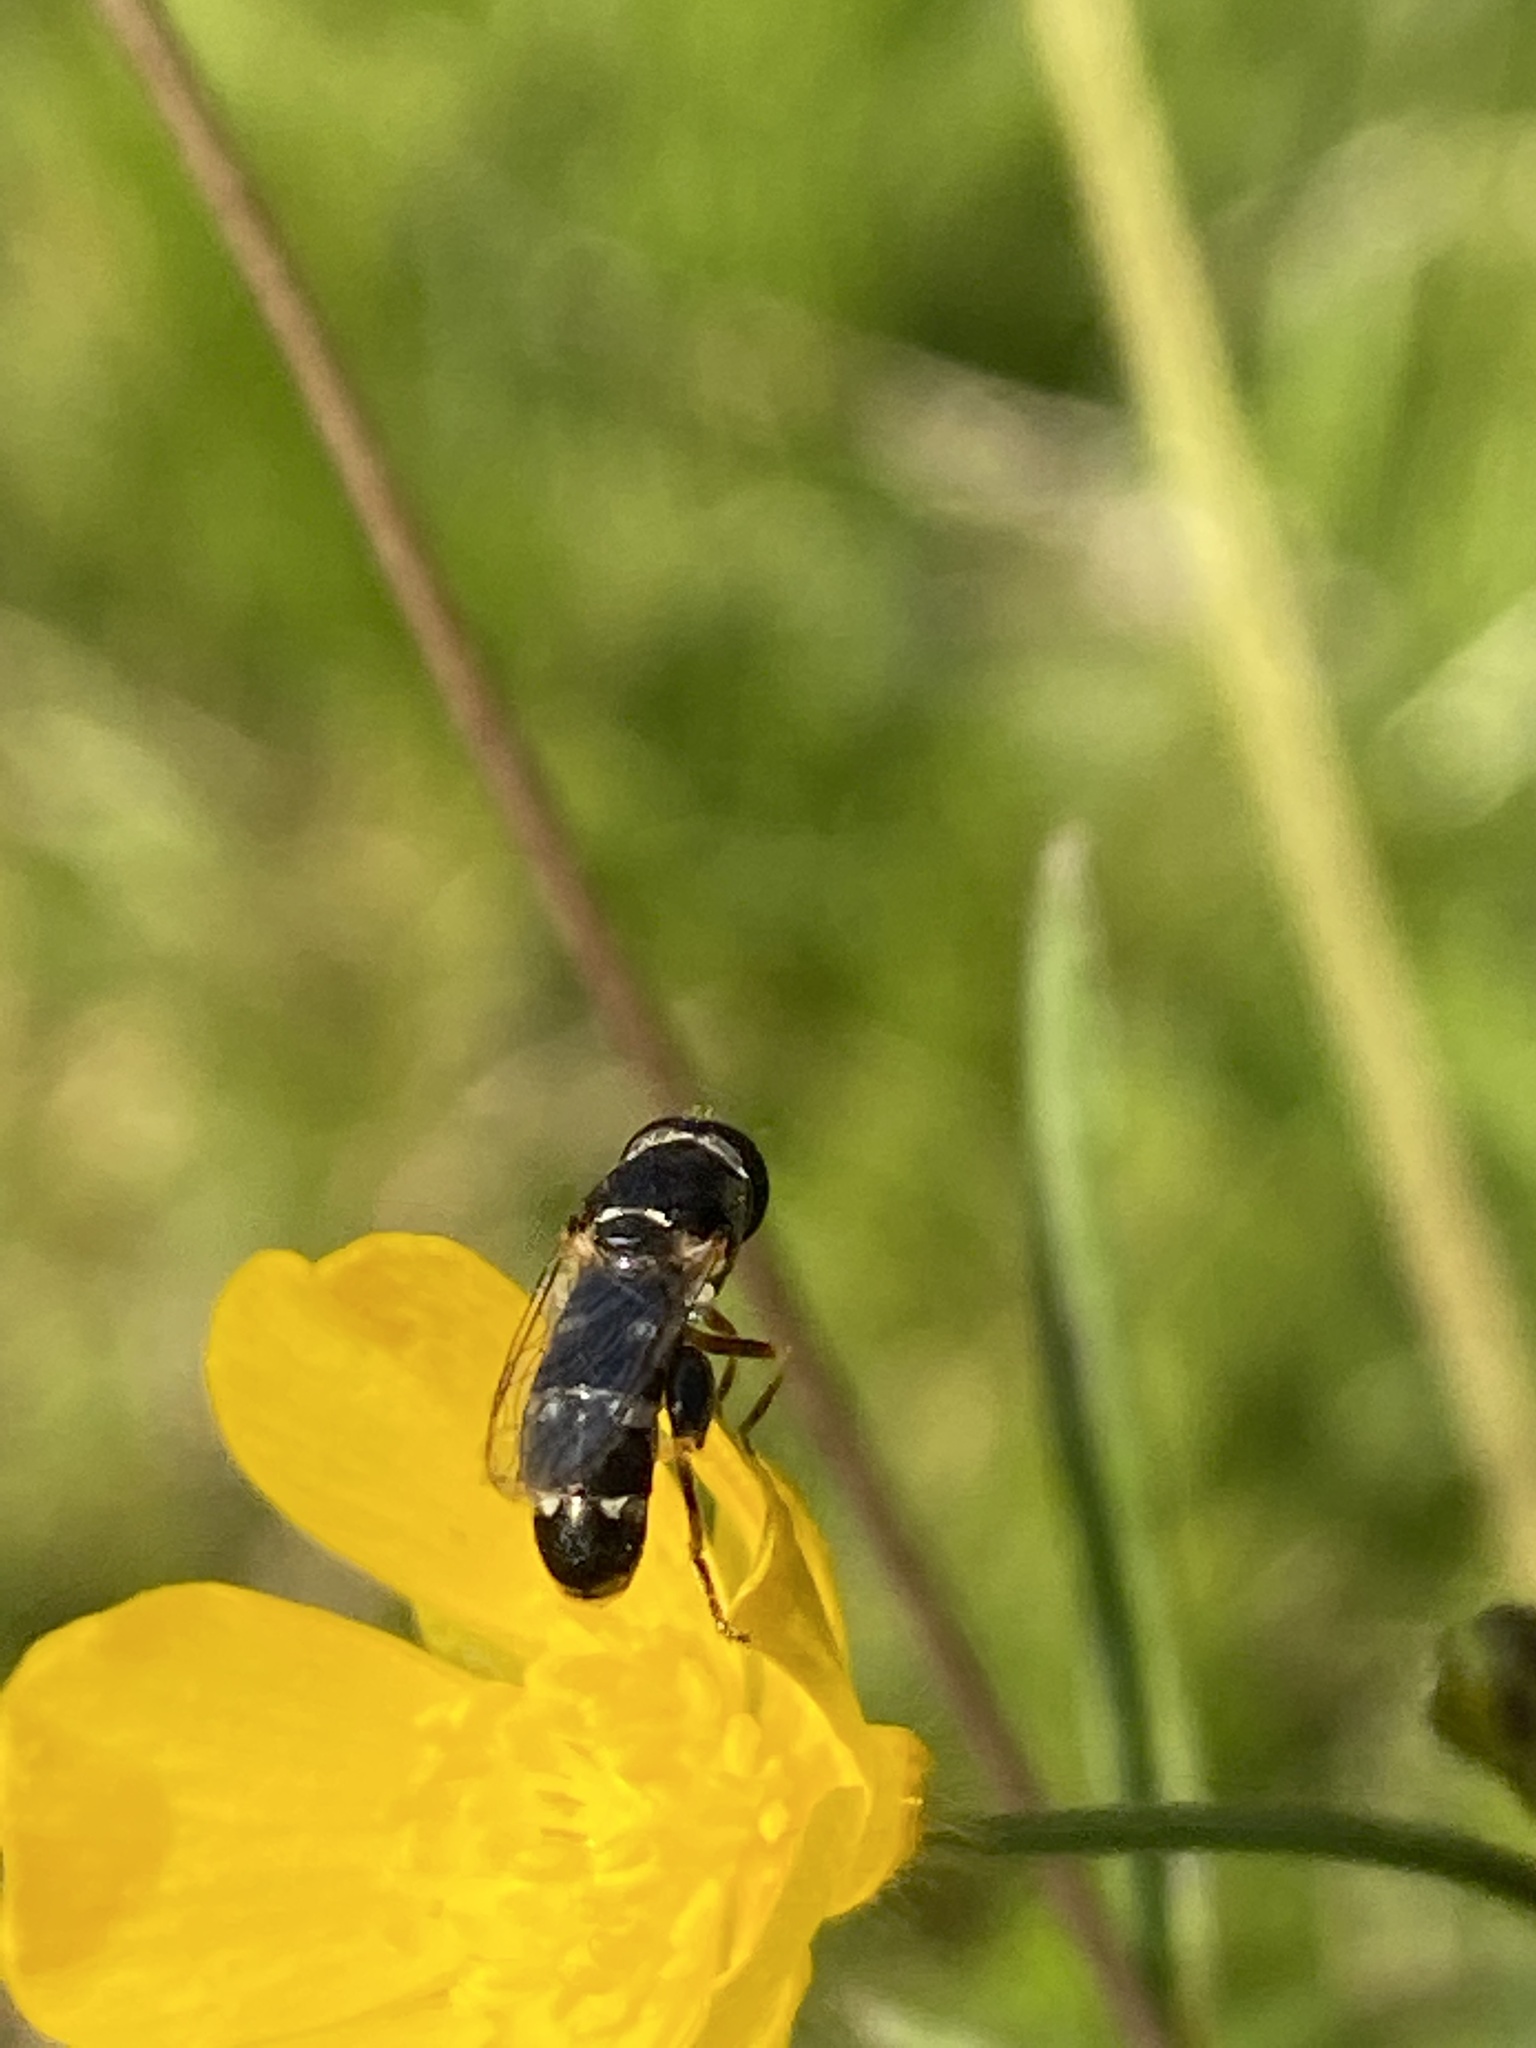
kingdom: Animalia
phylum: Arthropoda
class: Insecta
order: Diptera
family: Syrphidae
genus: Syritta
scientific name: Syritta pipiens
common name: Hover fly
